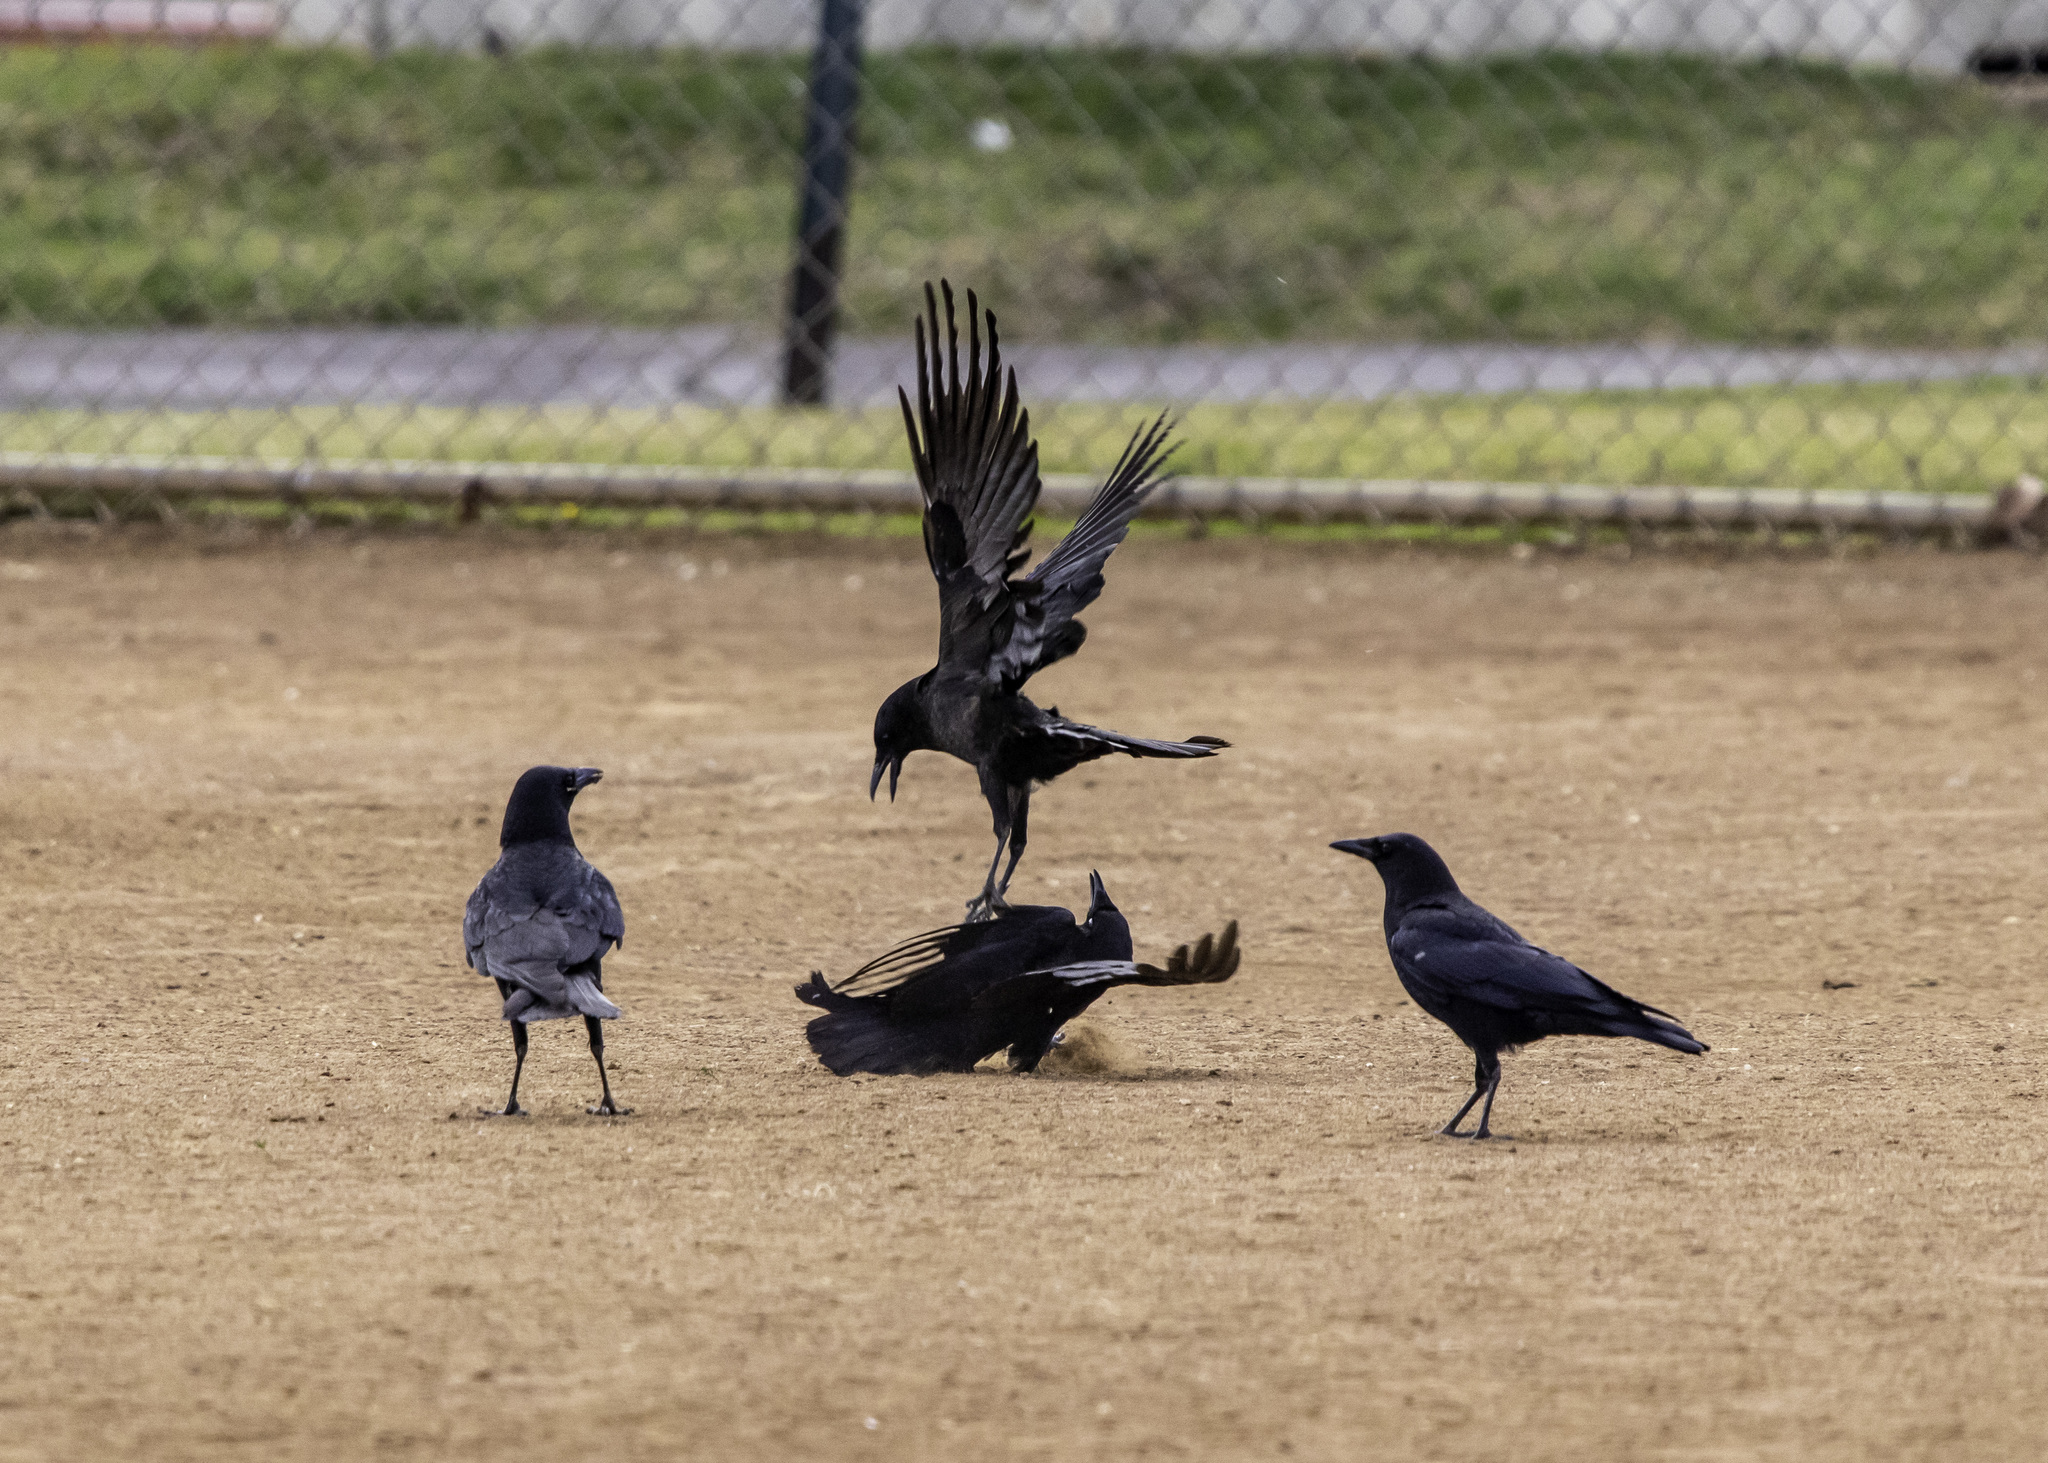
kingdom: Animalia
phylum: Chordata
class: Aves
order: Passeriformes
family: Corvidae
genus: Corvus
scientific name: Corvus brachyrhynchos
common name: American crow
